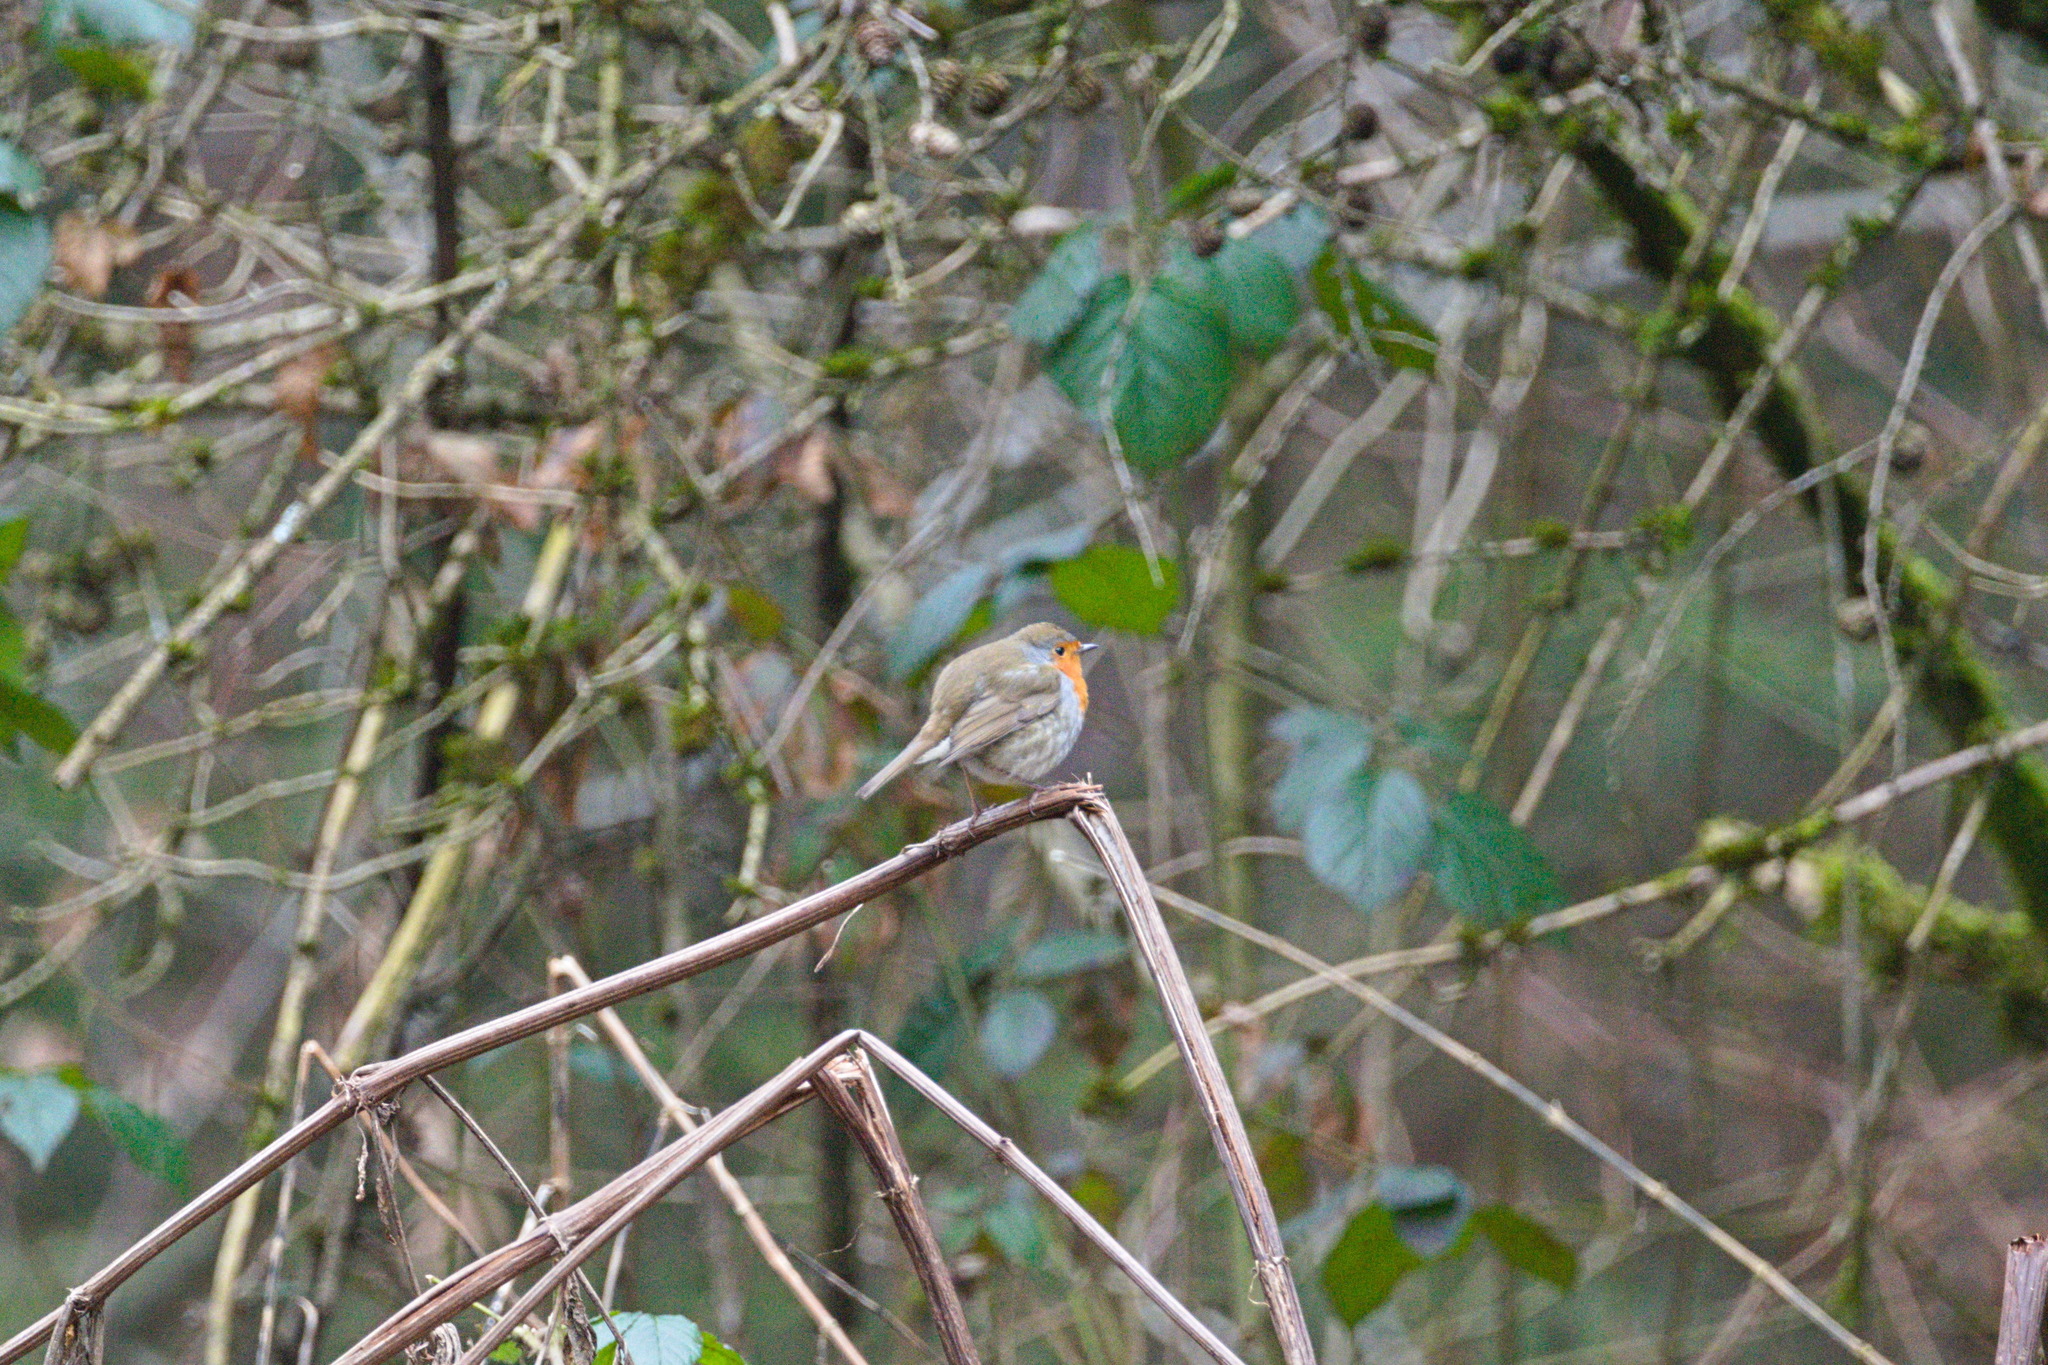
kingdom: Animalia
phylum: Chordata
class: Aves
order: Passeriformes
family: Muscicapidae
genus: Erithacus
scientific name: Erithacus rubecula
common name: European robin
